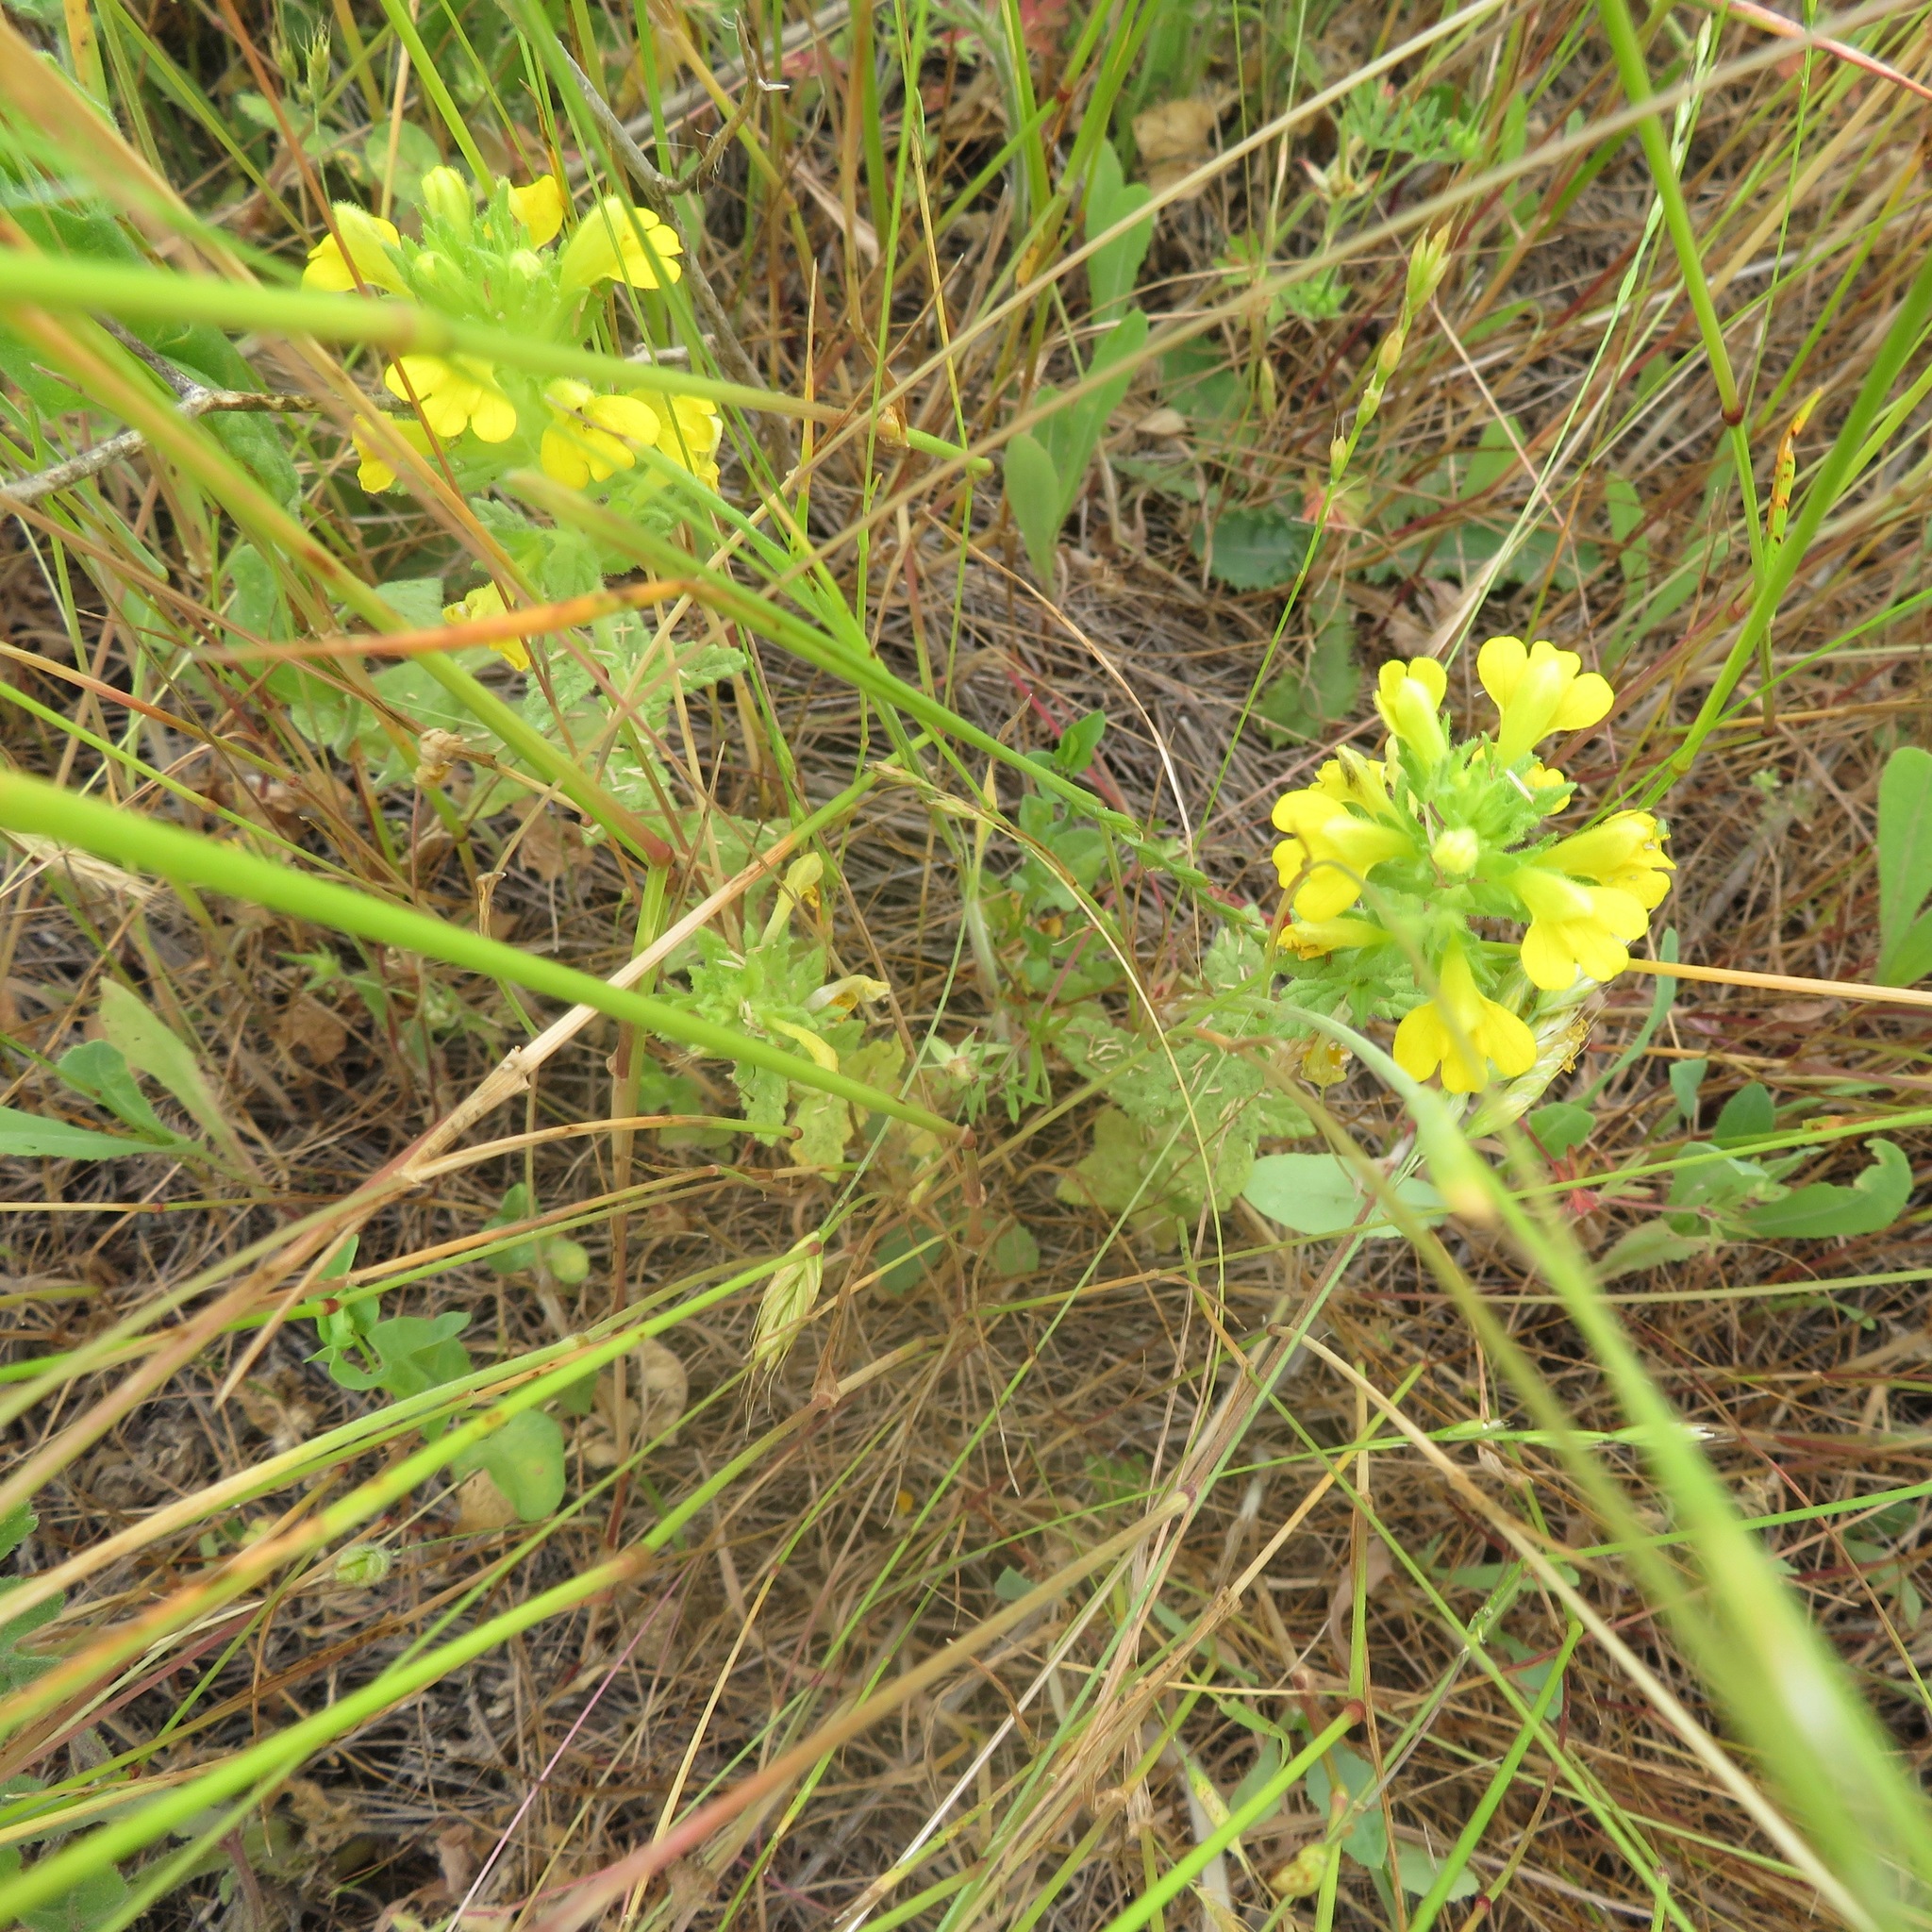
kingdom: Plantae
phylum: Tracheophyta
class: Magnoliopsida
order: Lamiales
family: Orobanchaceae
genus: Bellardia
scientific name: Bellardia viscosa
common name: Sticky parentucellia
